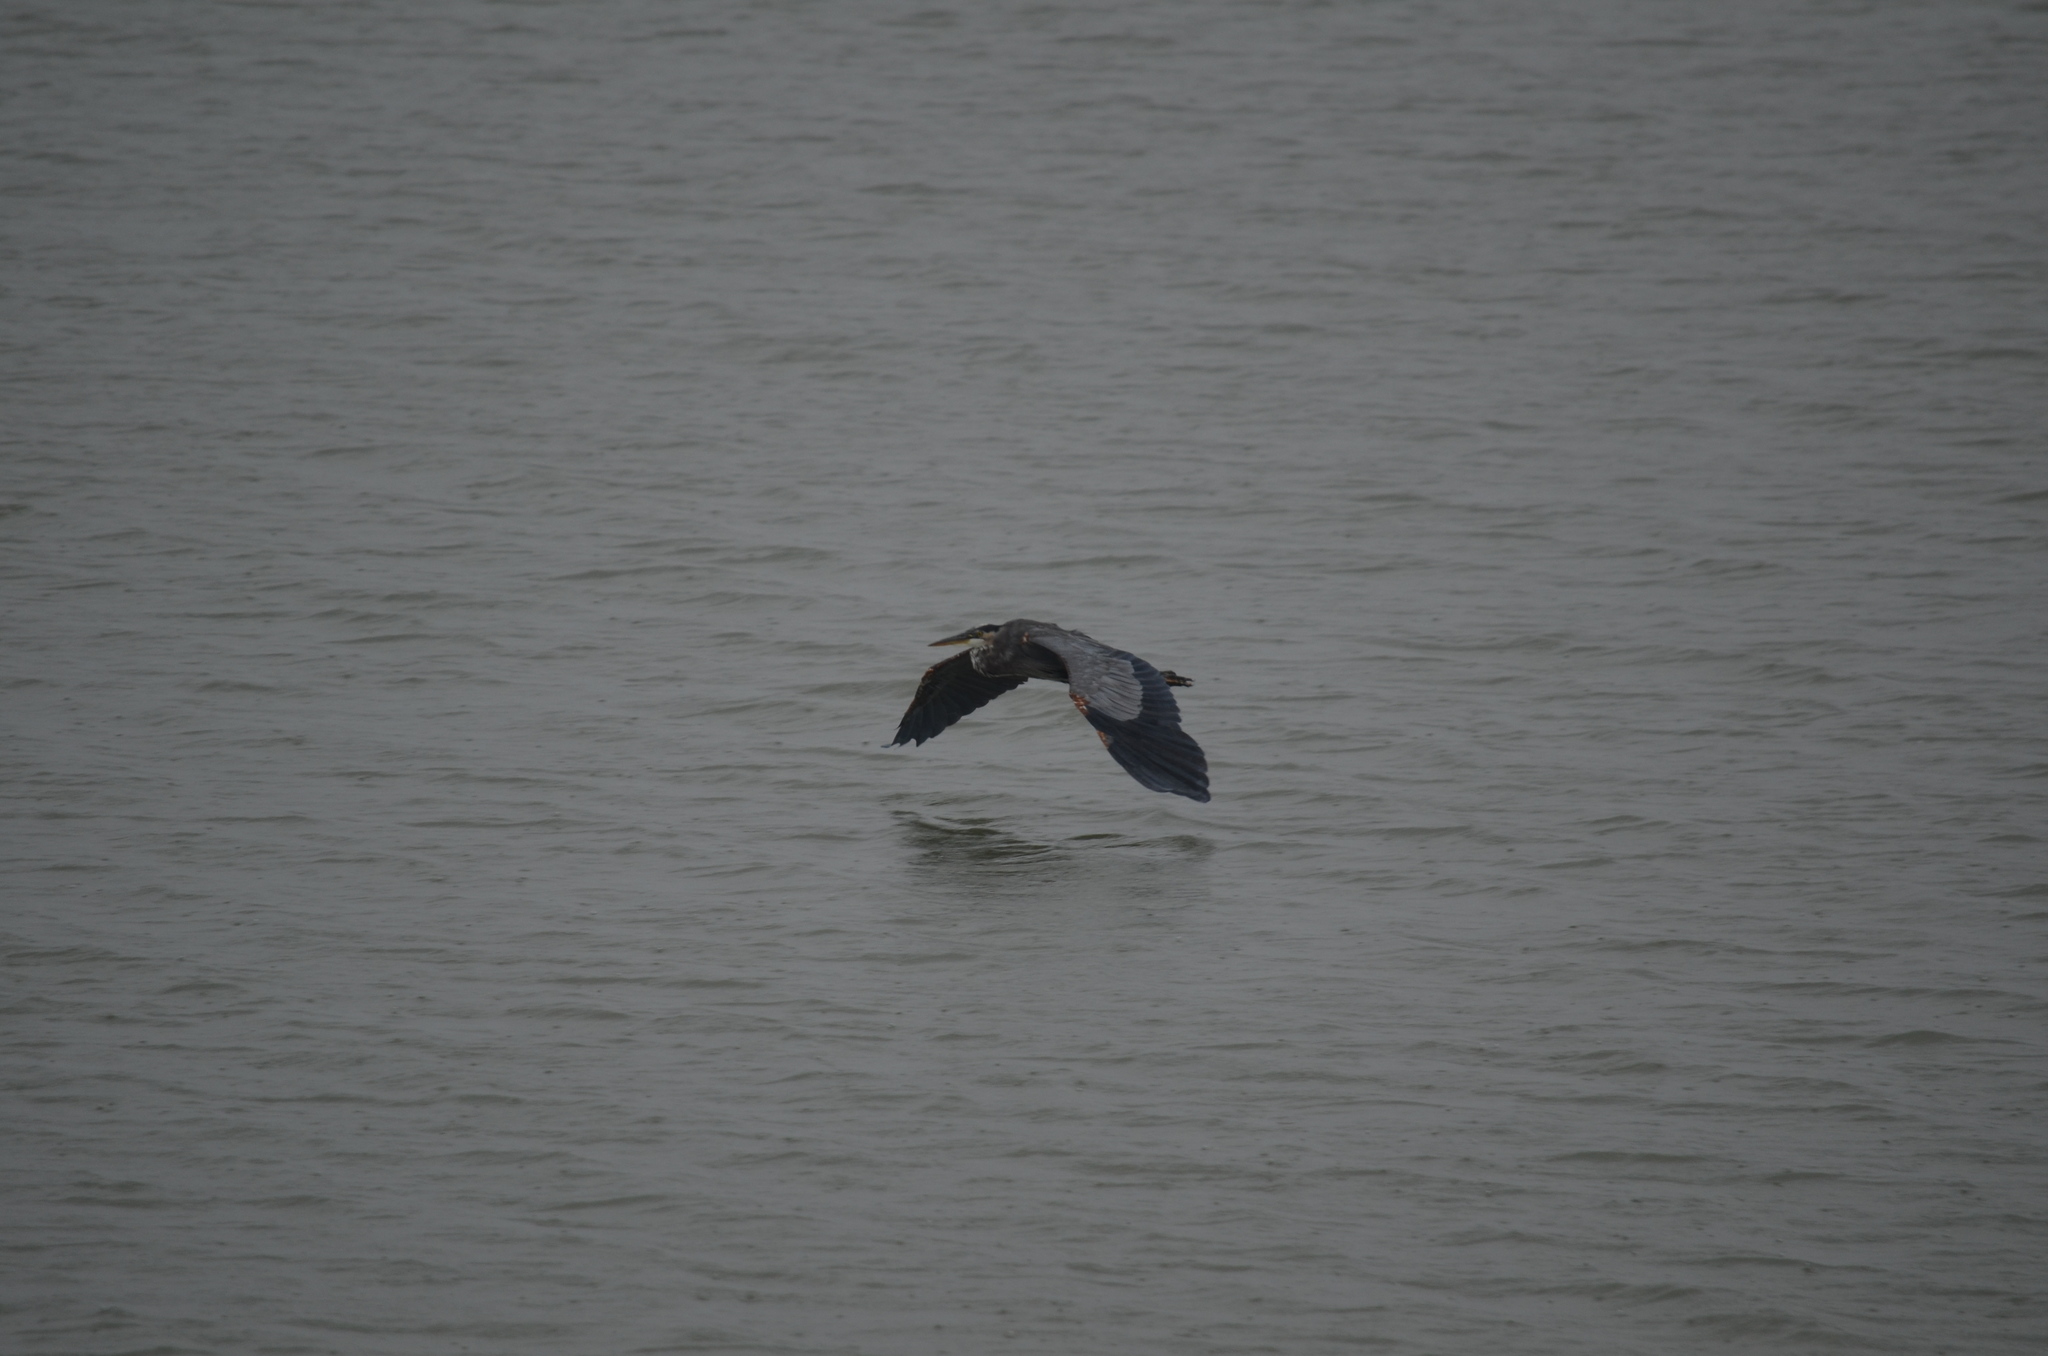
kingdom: Animalia
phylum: Chordata
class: Aves
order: Pelecaniformes
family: Ardeidae
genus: Ardea
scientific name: Ardea herodias
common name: Great blue heron
